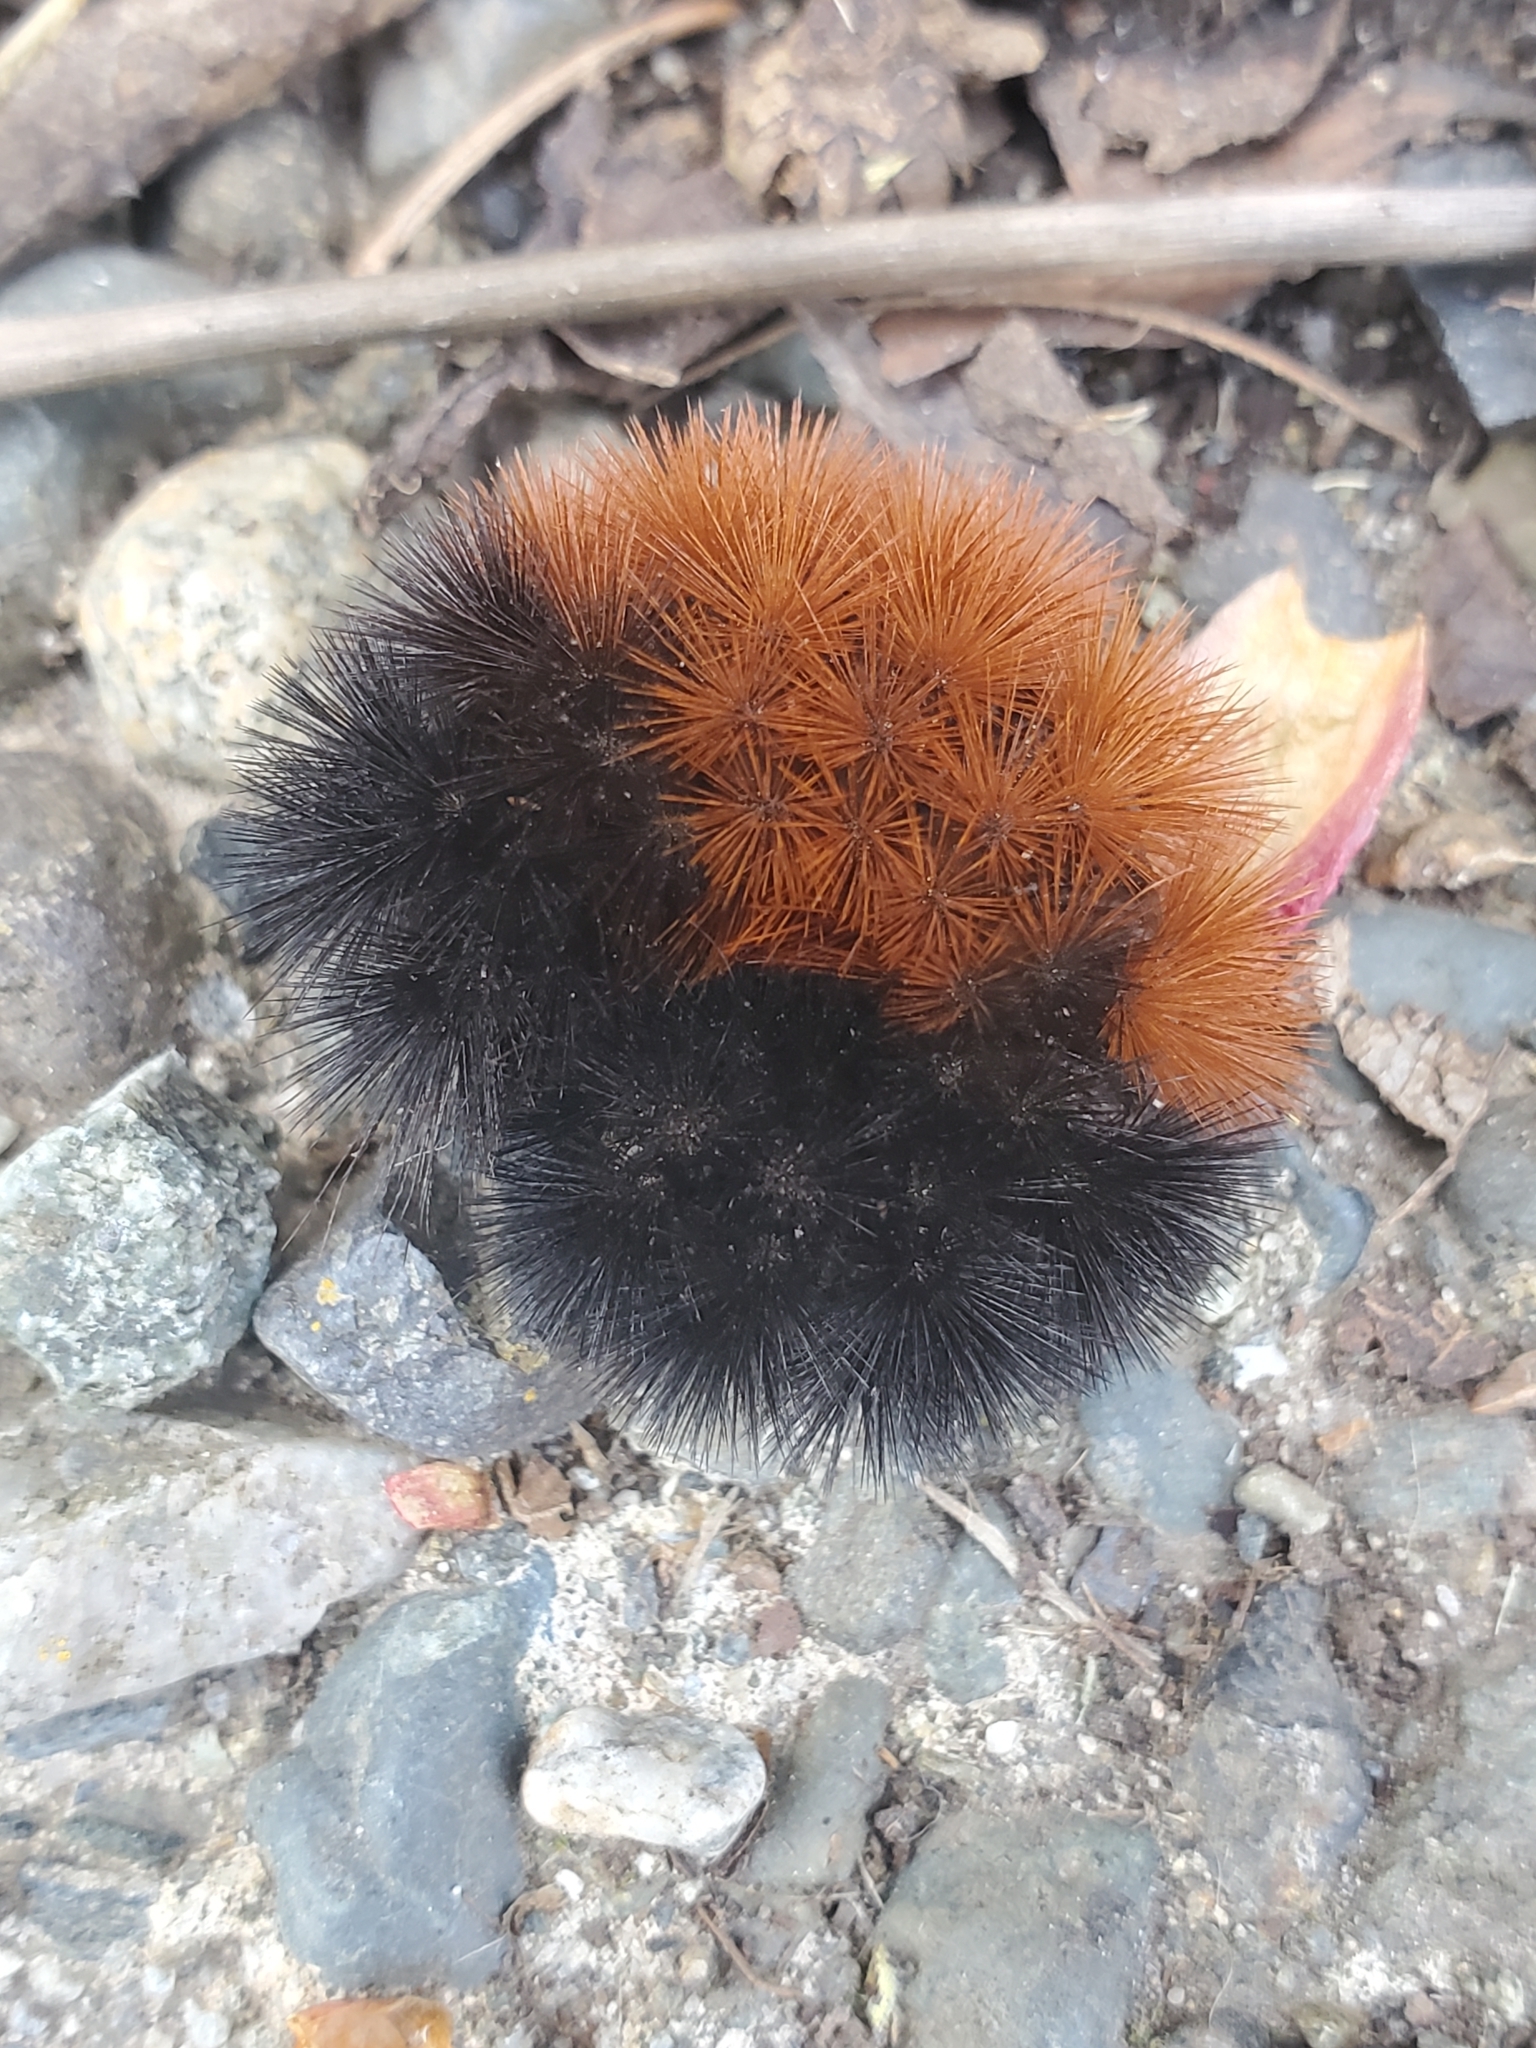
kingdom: Animalia
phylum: Arthropoda
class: Insecta
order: Lepidoptera
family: Erebidae
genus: Pyrrharctia
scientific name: Pyrrharctia isabella
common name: Isabella tiger moth
